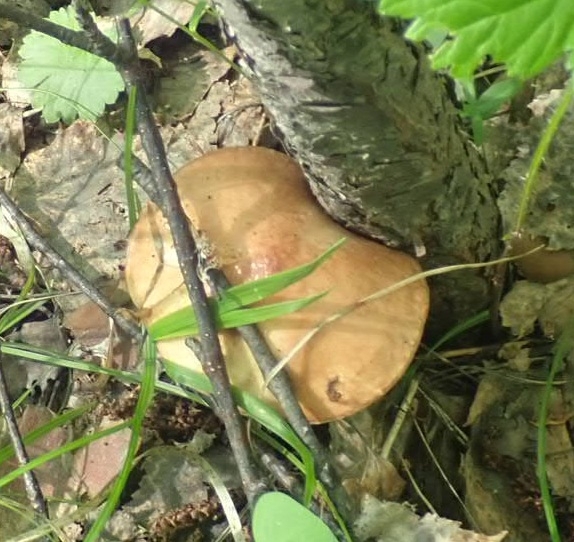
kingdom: Fungi
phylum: Basidiomycota
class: Agaricomycetes
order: Boletales
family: Suillaceae
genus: Suillus
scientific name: Suillus granulatus
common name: Weeping bolete
